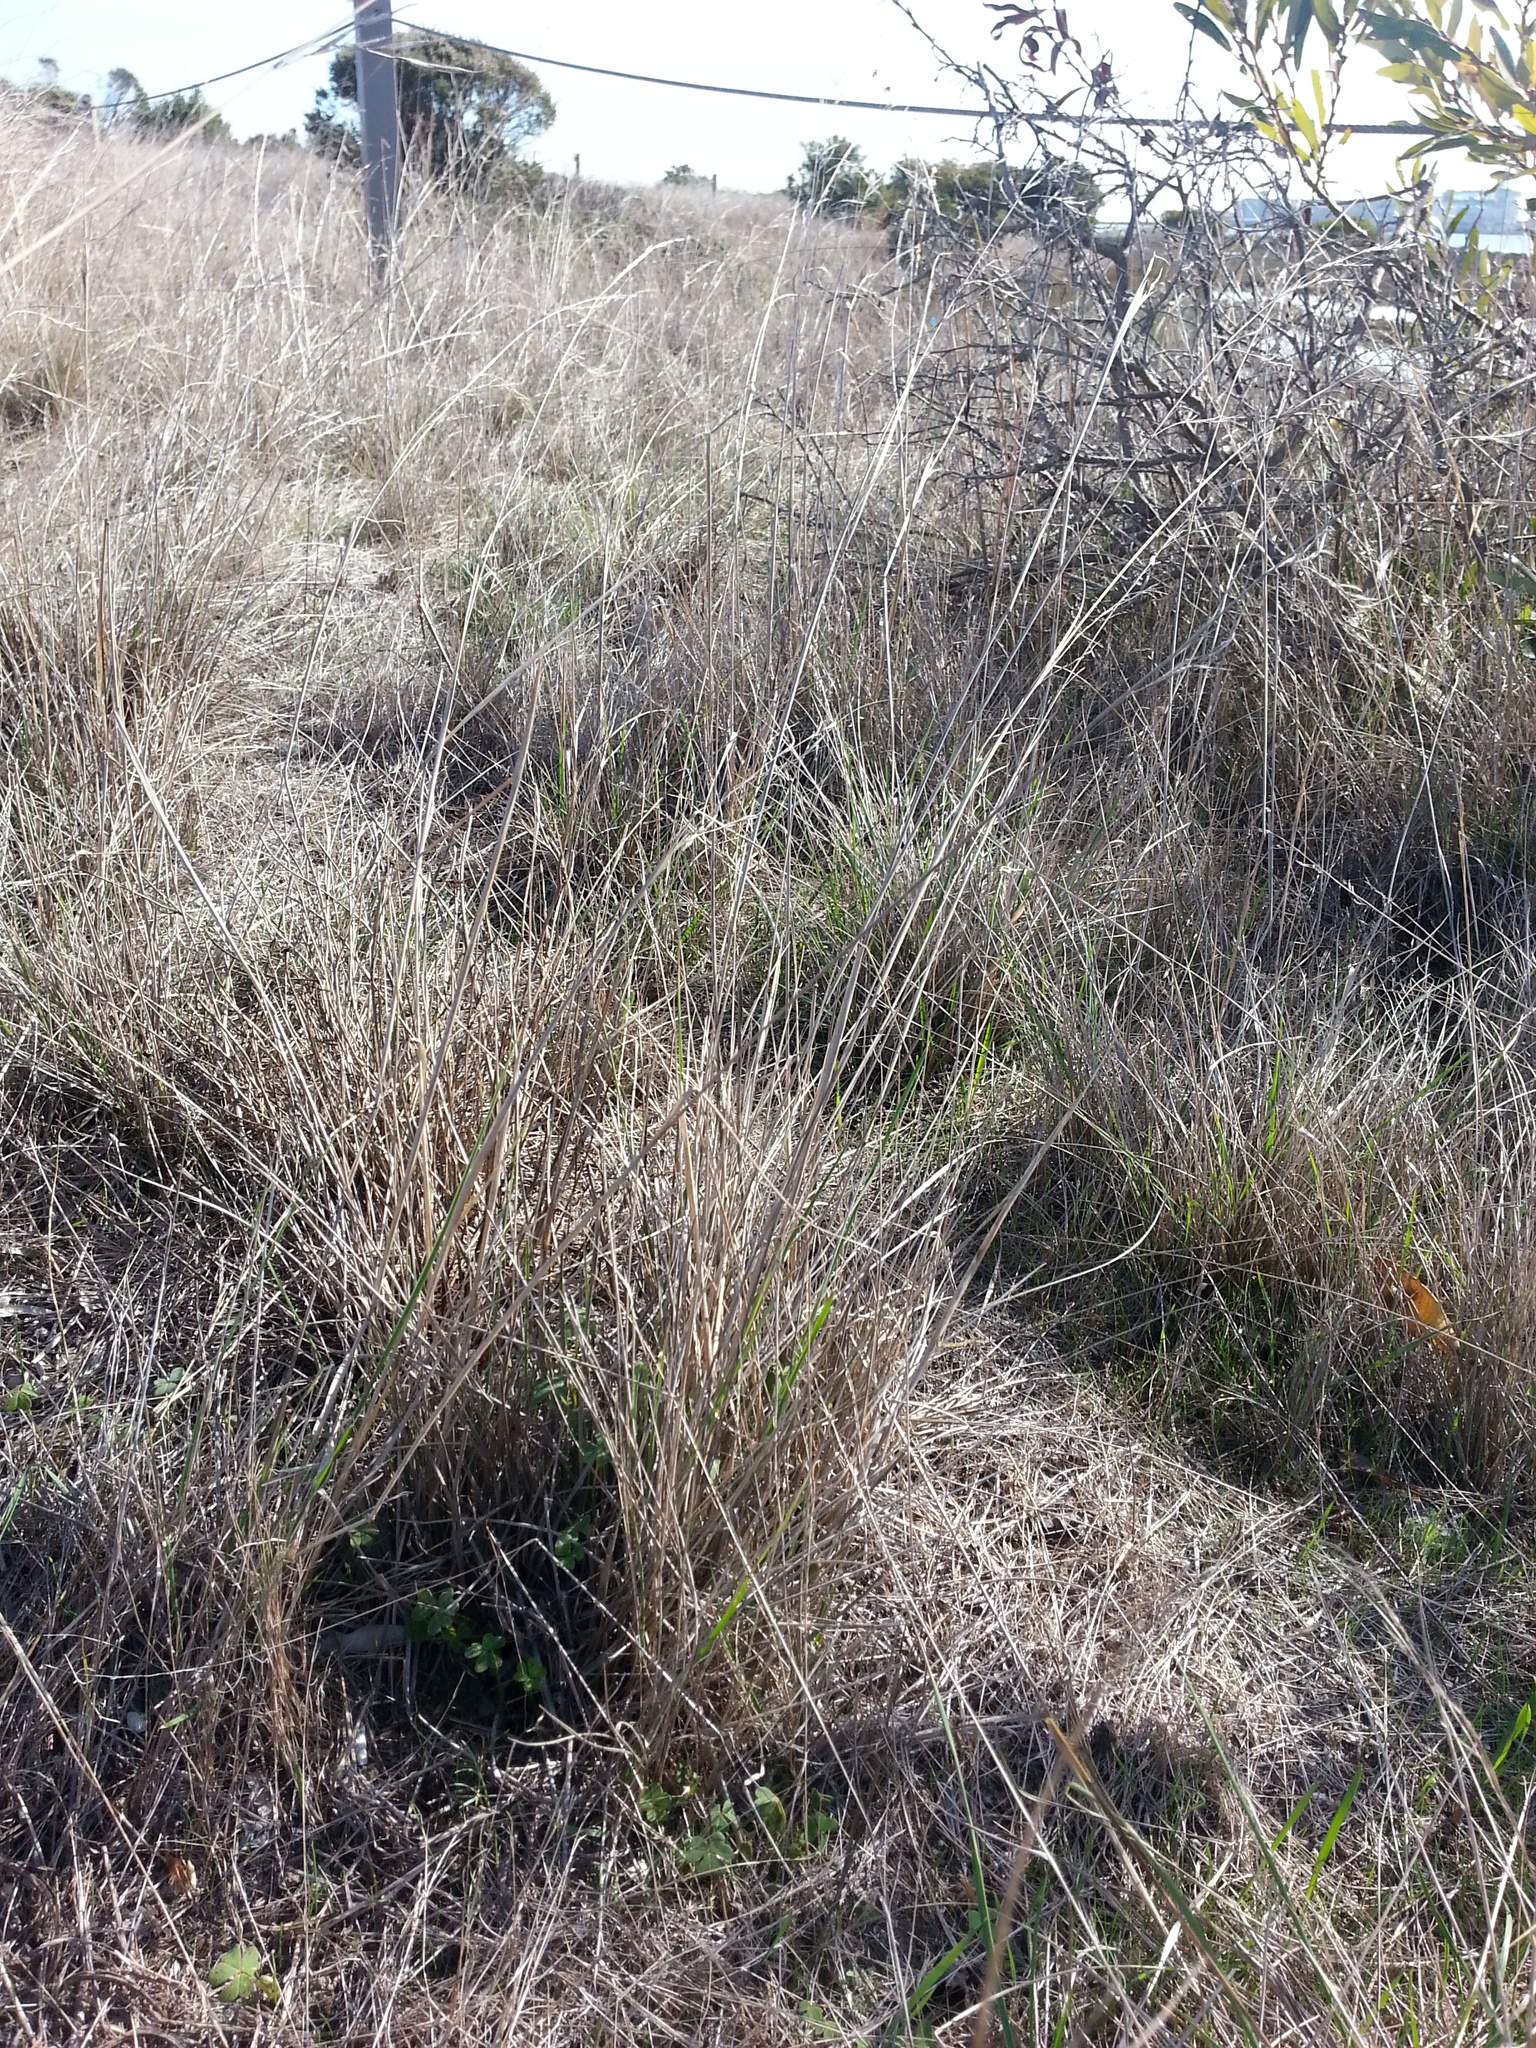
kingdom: Plantae
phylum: Tracheophyta
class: Liliopsida
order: Poales
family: Poaceae
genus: Nassella
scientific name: Nassella pulchra
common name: Purple needlegrass
